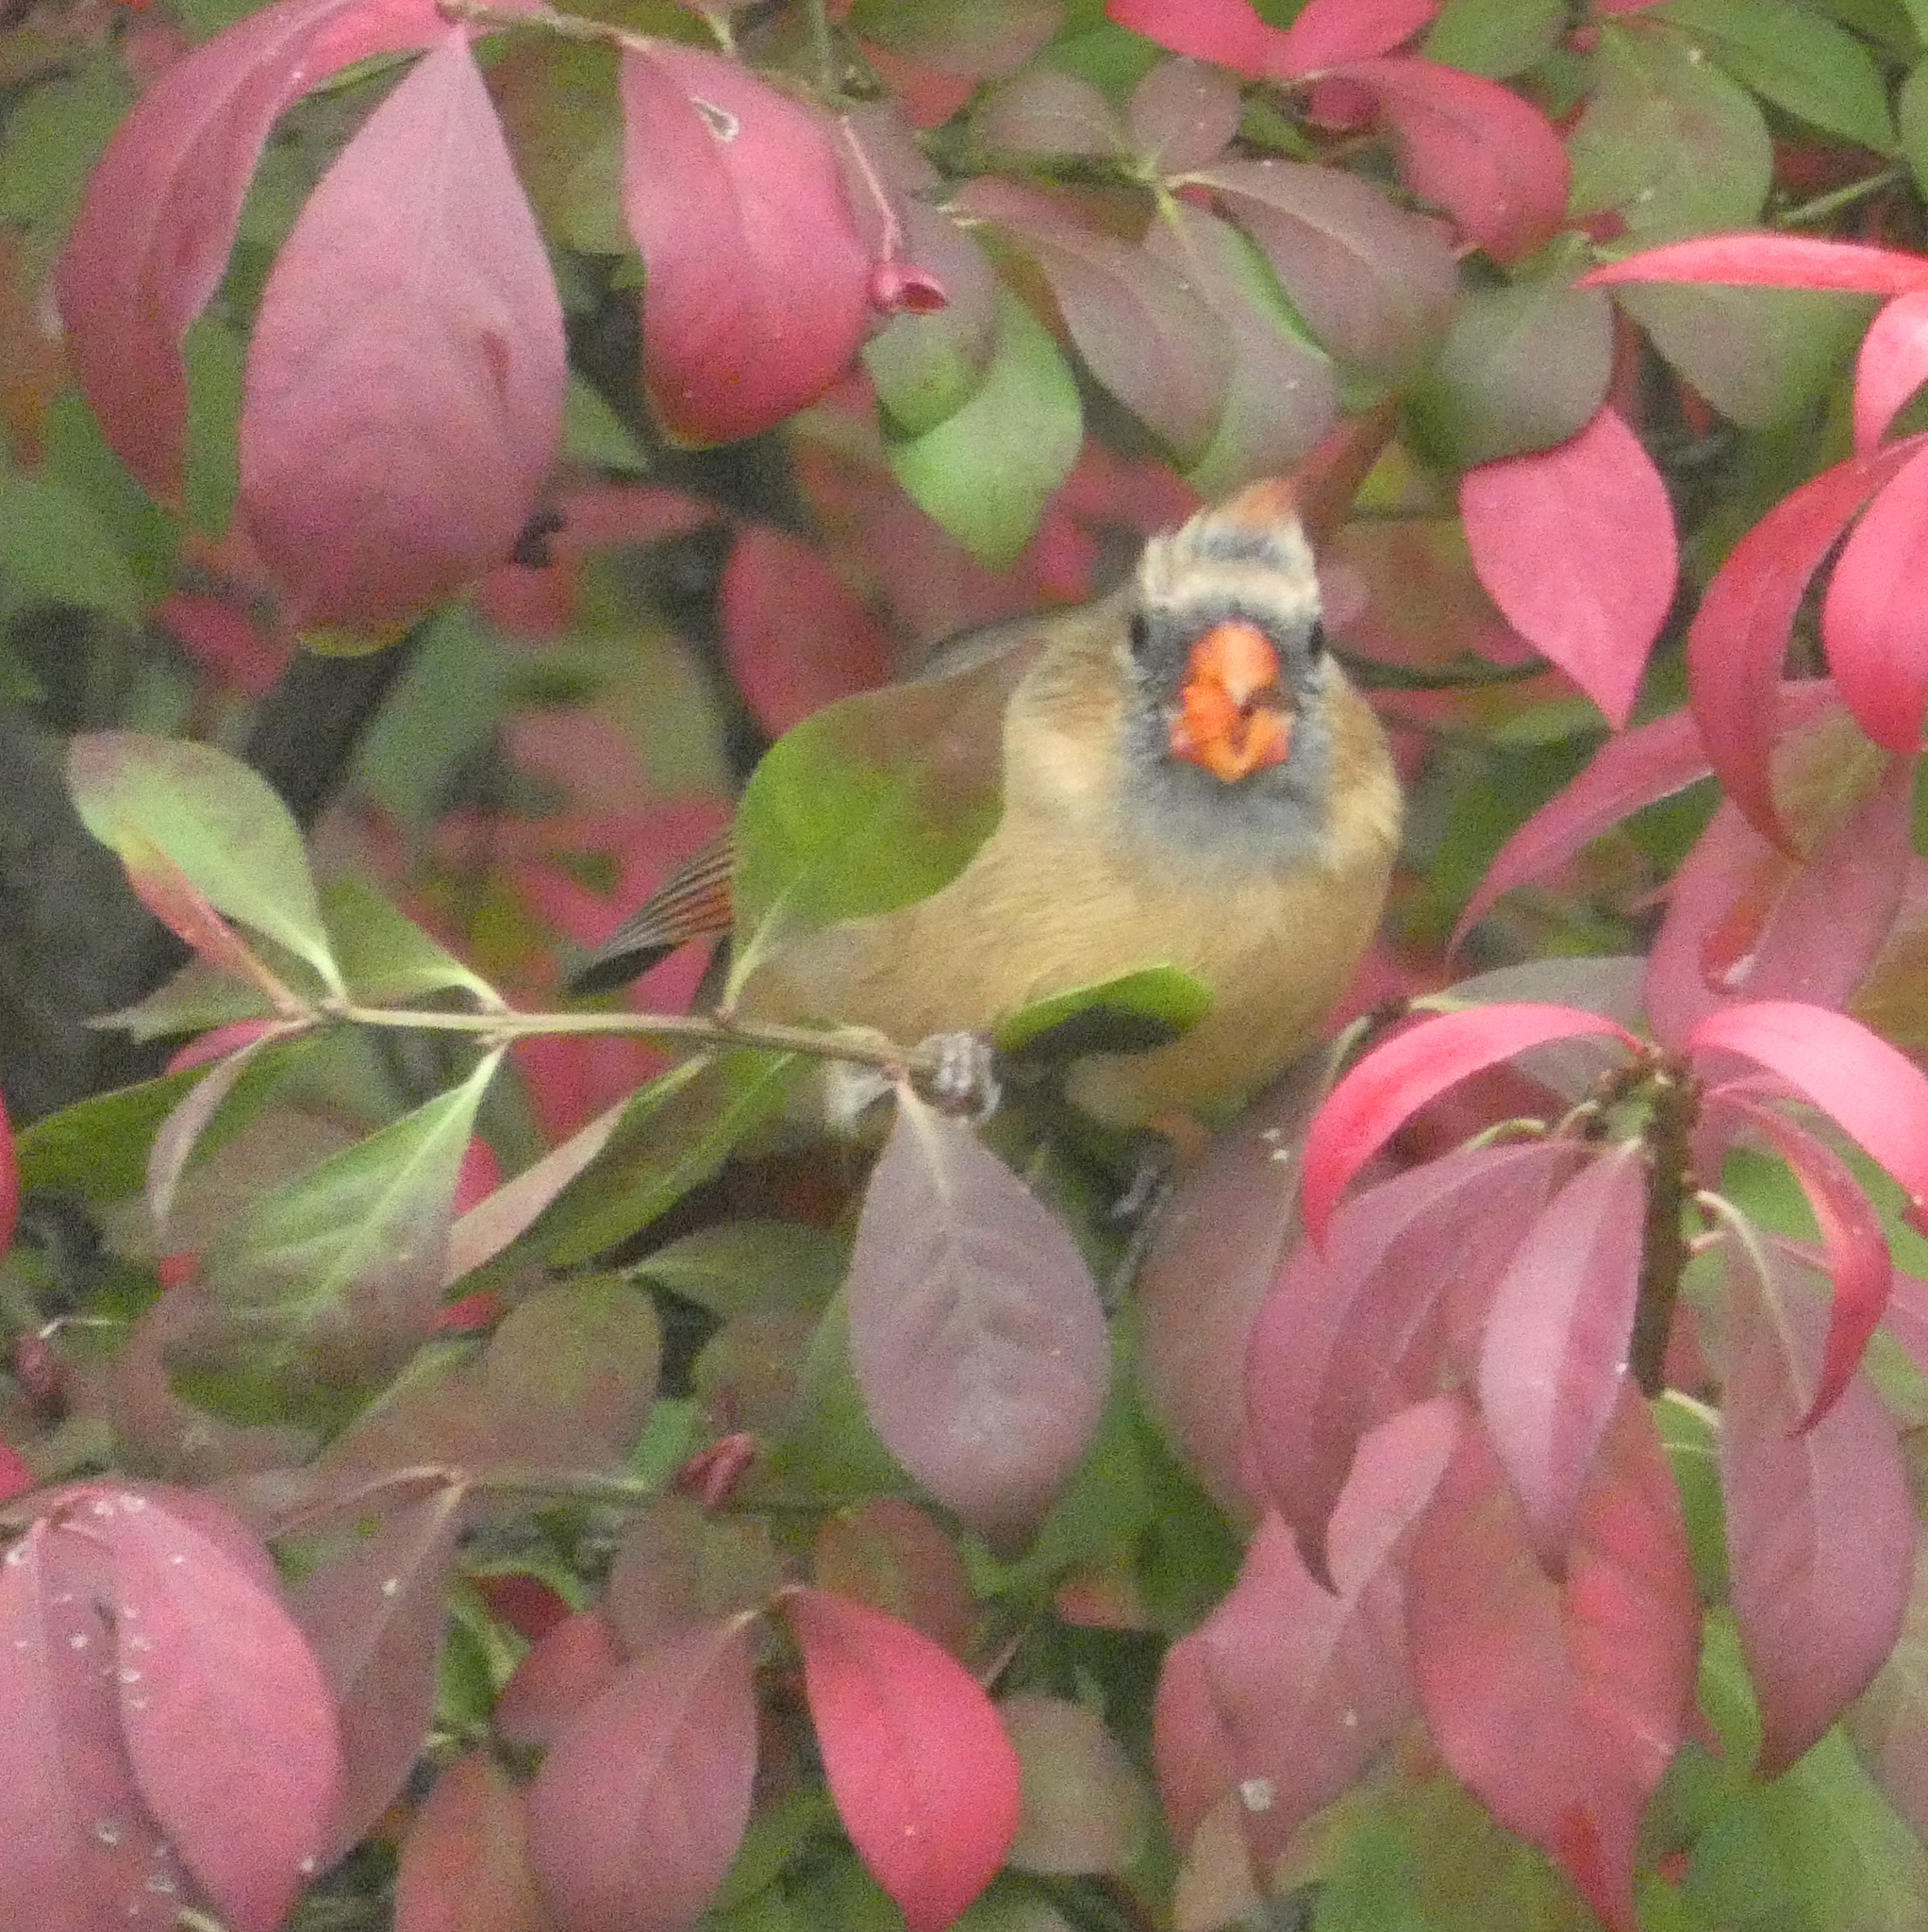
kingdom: Animalia
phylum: Chordata
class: Aves
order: Passeriformes
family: Cardinalidae
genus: Cardinalis
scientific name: Cardinalis cardinalis
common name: Northern cardinal
